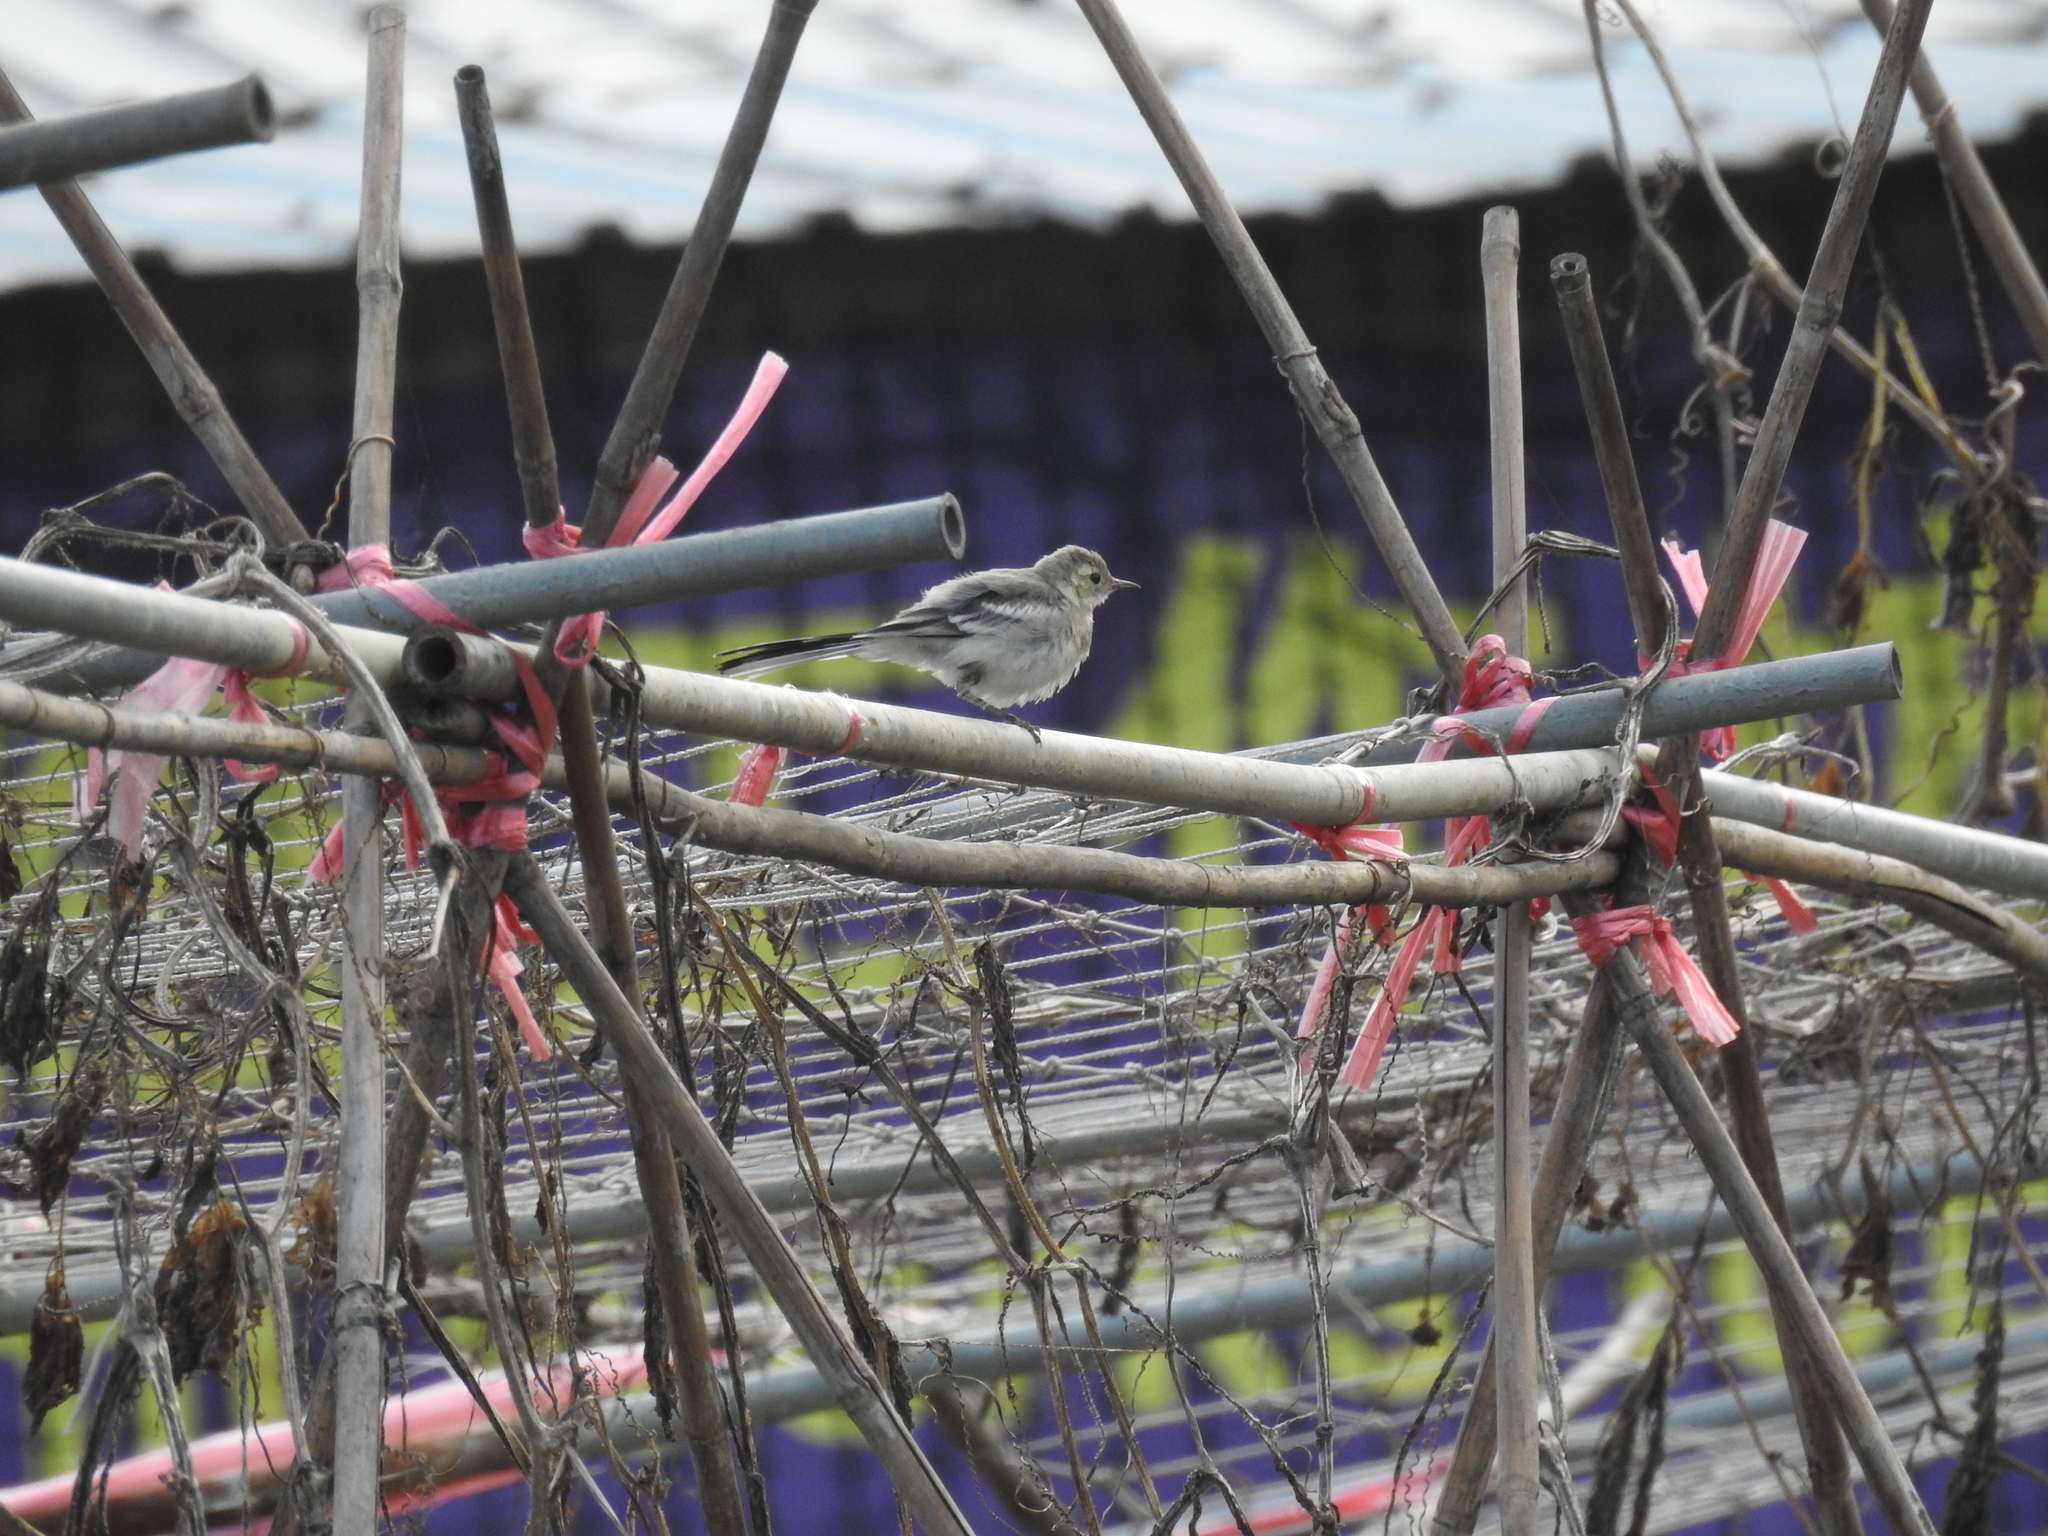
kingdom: Animalia
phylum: Chordata
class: Aves
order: Passeriformes
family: Motacillidae
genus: Motacilla
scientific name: Motacilla alba
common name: White wagtail
